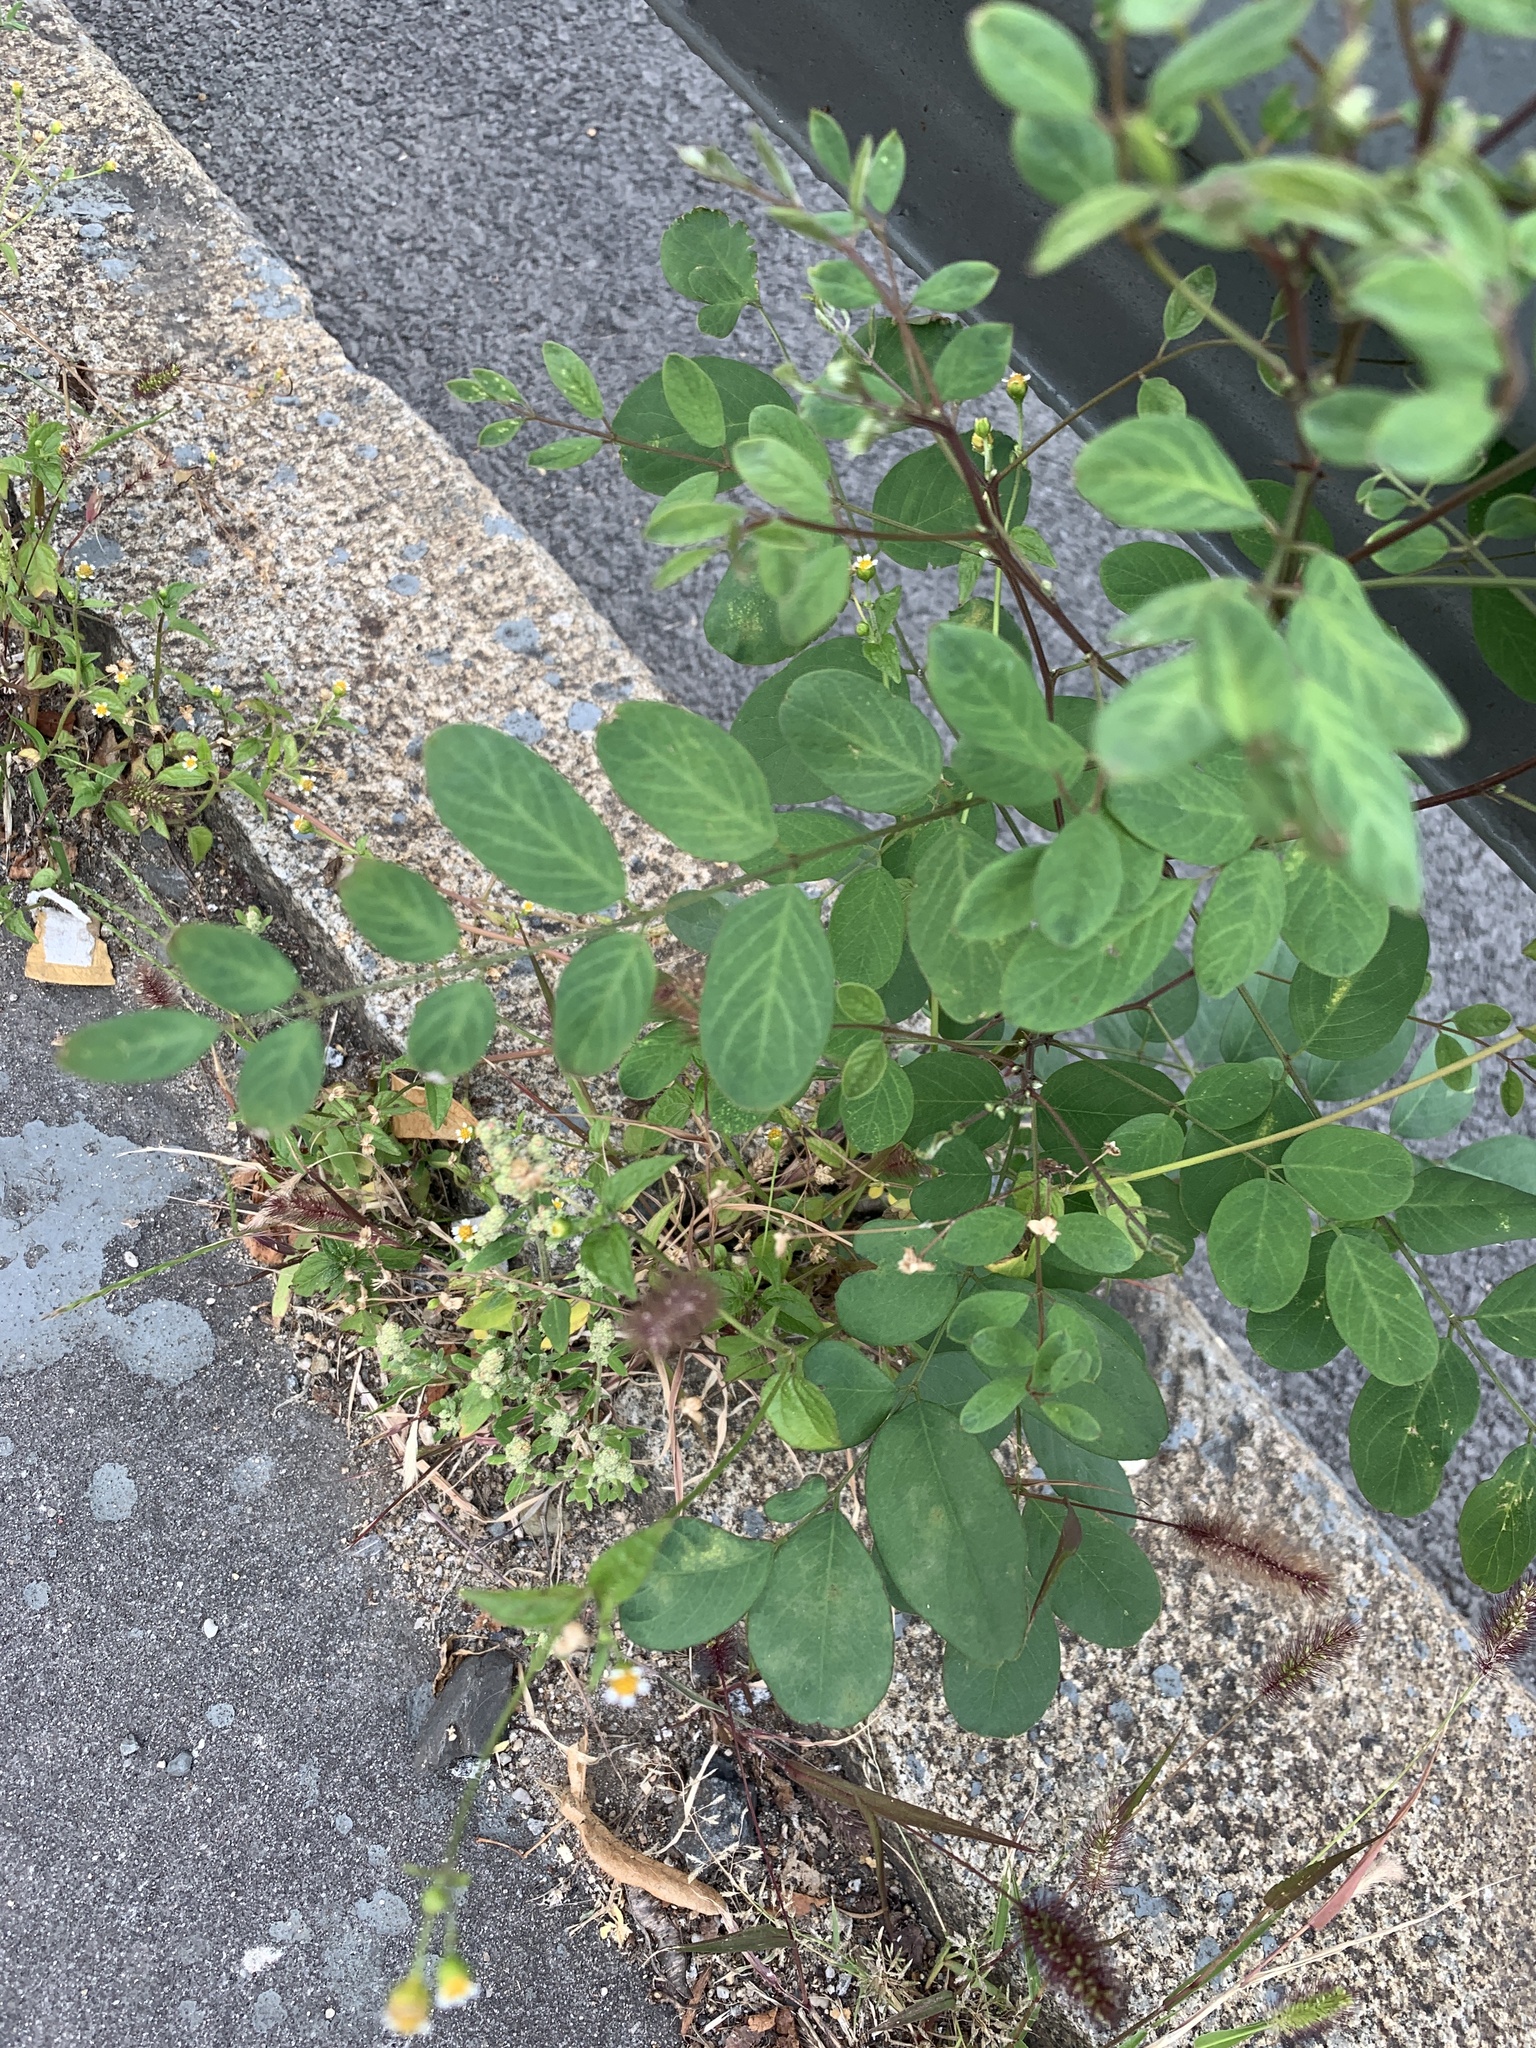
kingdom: Plantae
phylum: Tracheophyta
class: Magnoliopsida
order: Fabales
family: Fabaceae
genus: Robinia
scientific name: Robinia pseudoacacia
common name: Black locust
